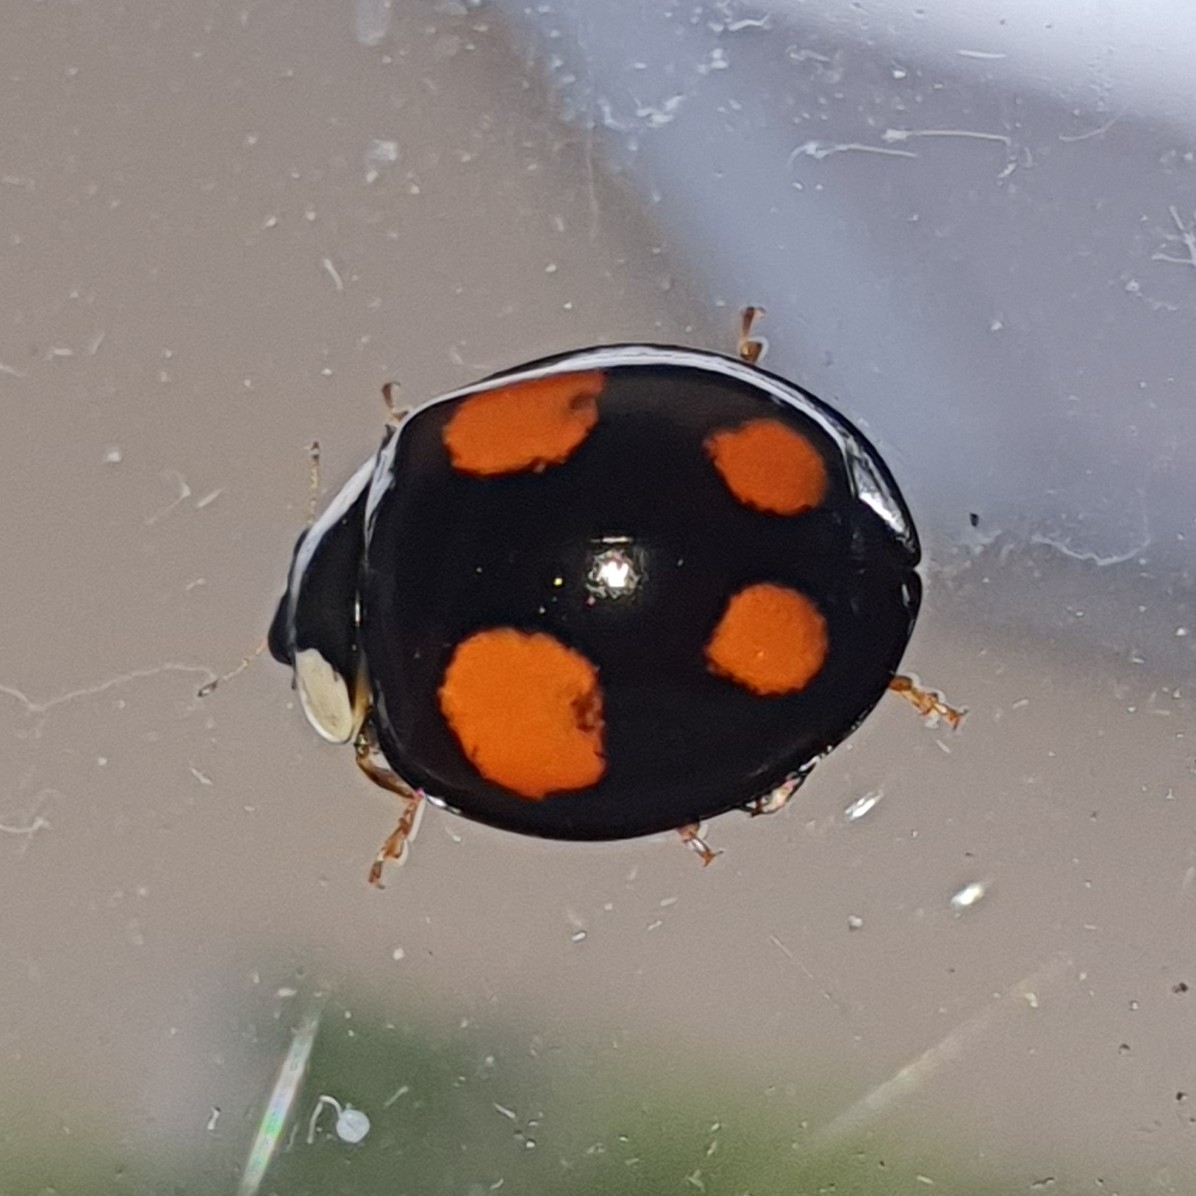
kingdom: Animalia
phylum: Arthropoda
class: Insecta
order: Coleoptera
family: Coccinellidae
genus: Harmonia
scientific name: Harmonia axyridis
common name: Harlequin ladybird
